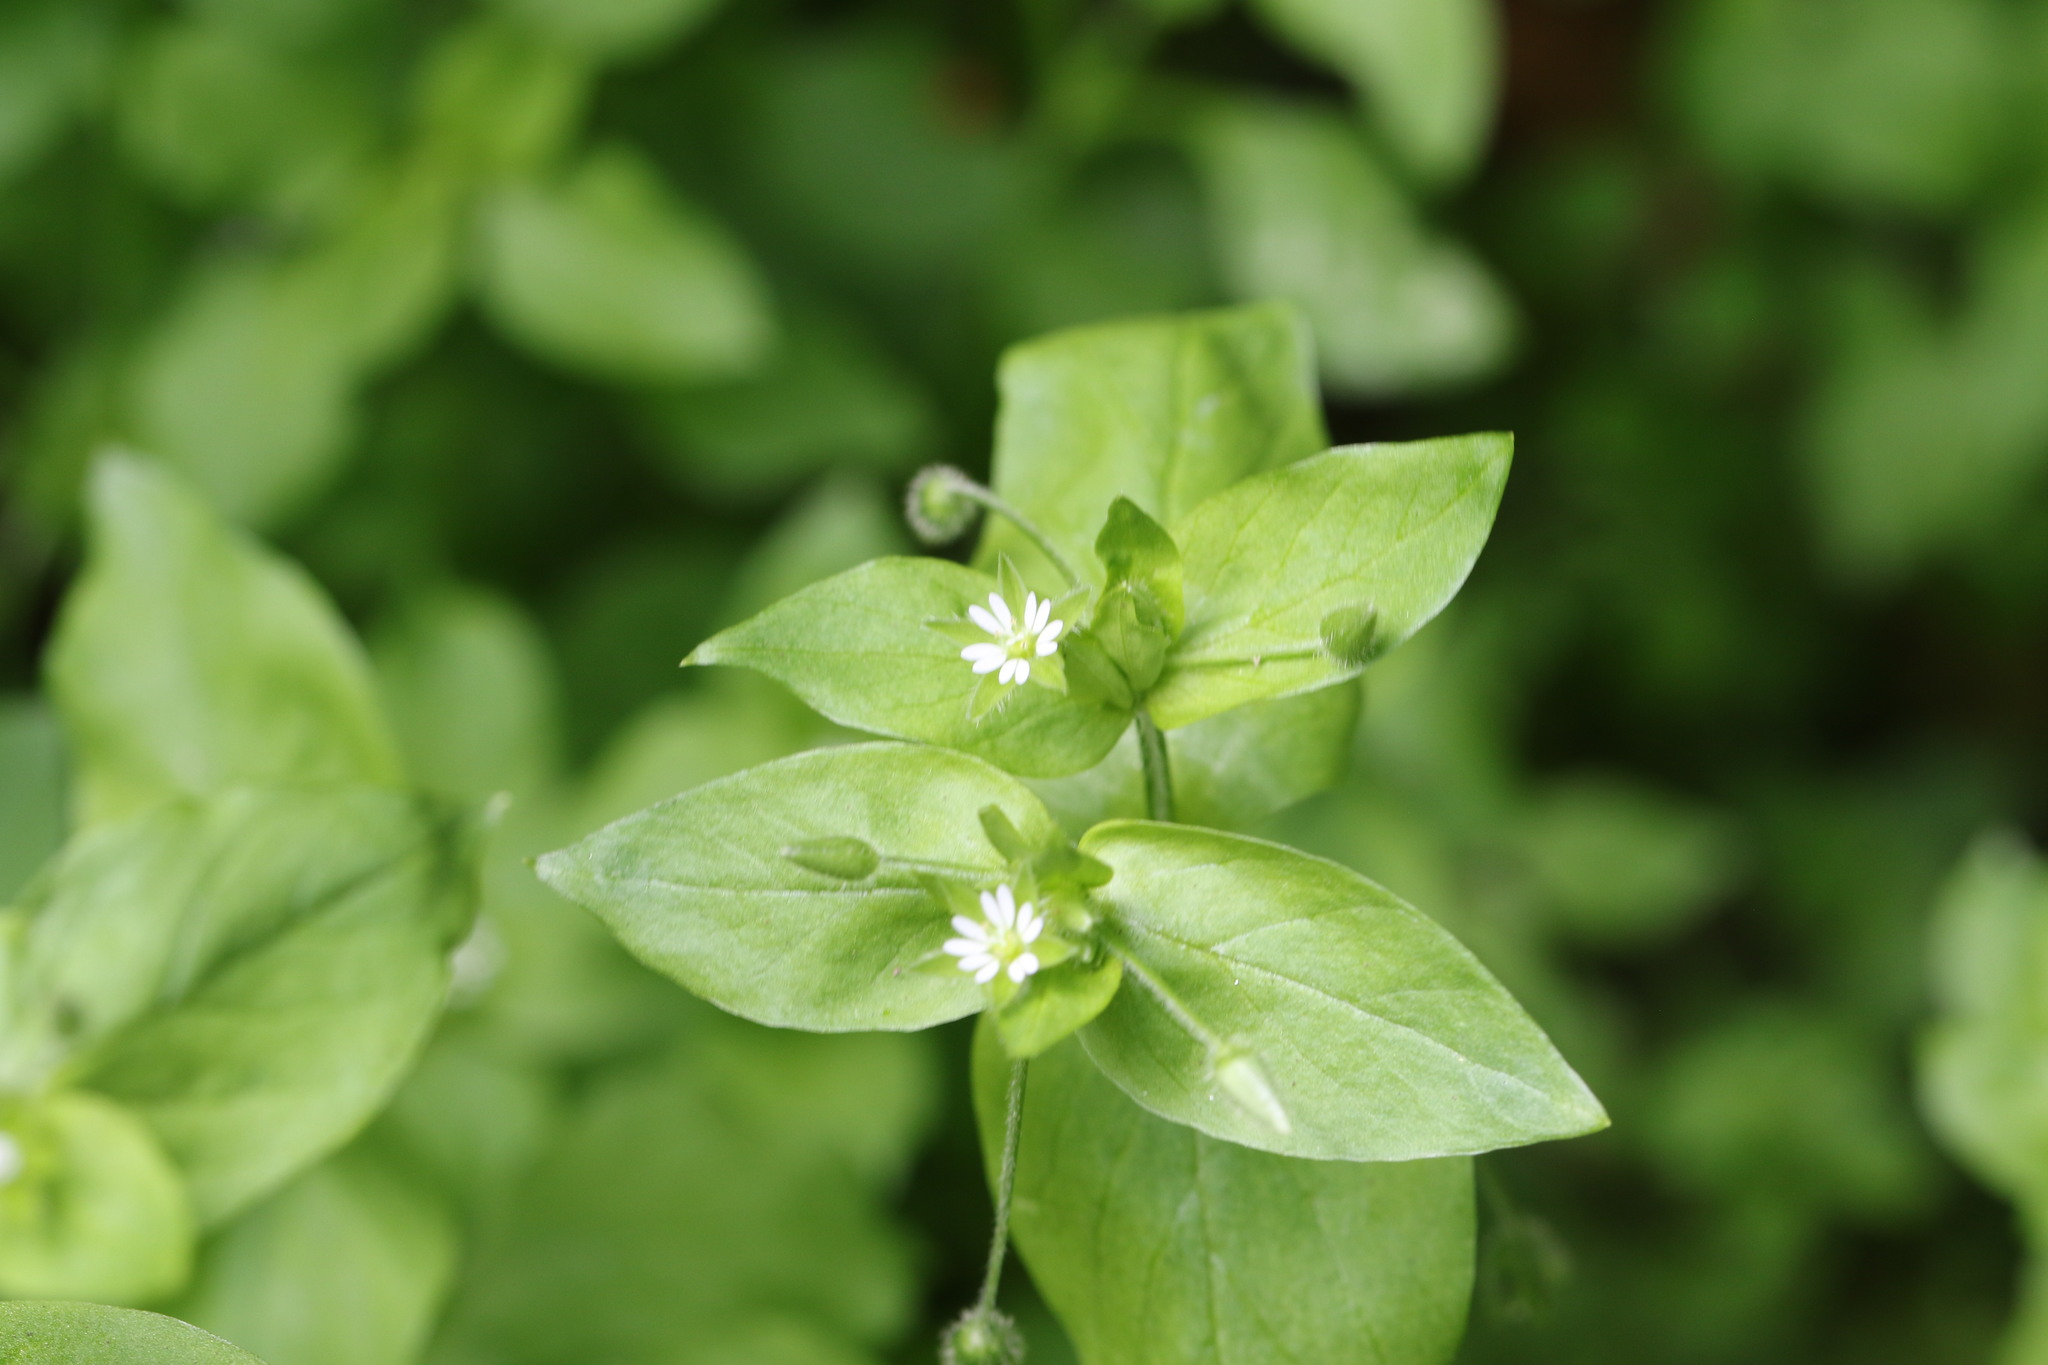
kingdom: Plantae
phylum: Tracheophyta
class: Magnoliopsida
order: Caryophyllales
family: Caryophyllaceae
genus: Stellaria
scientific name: Stellaria media
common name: Common chickweed
